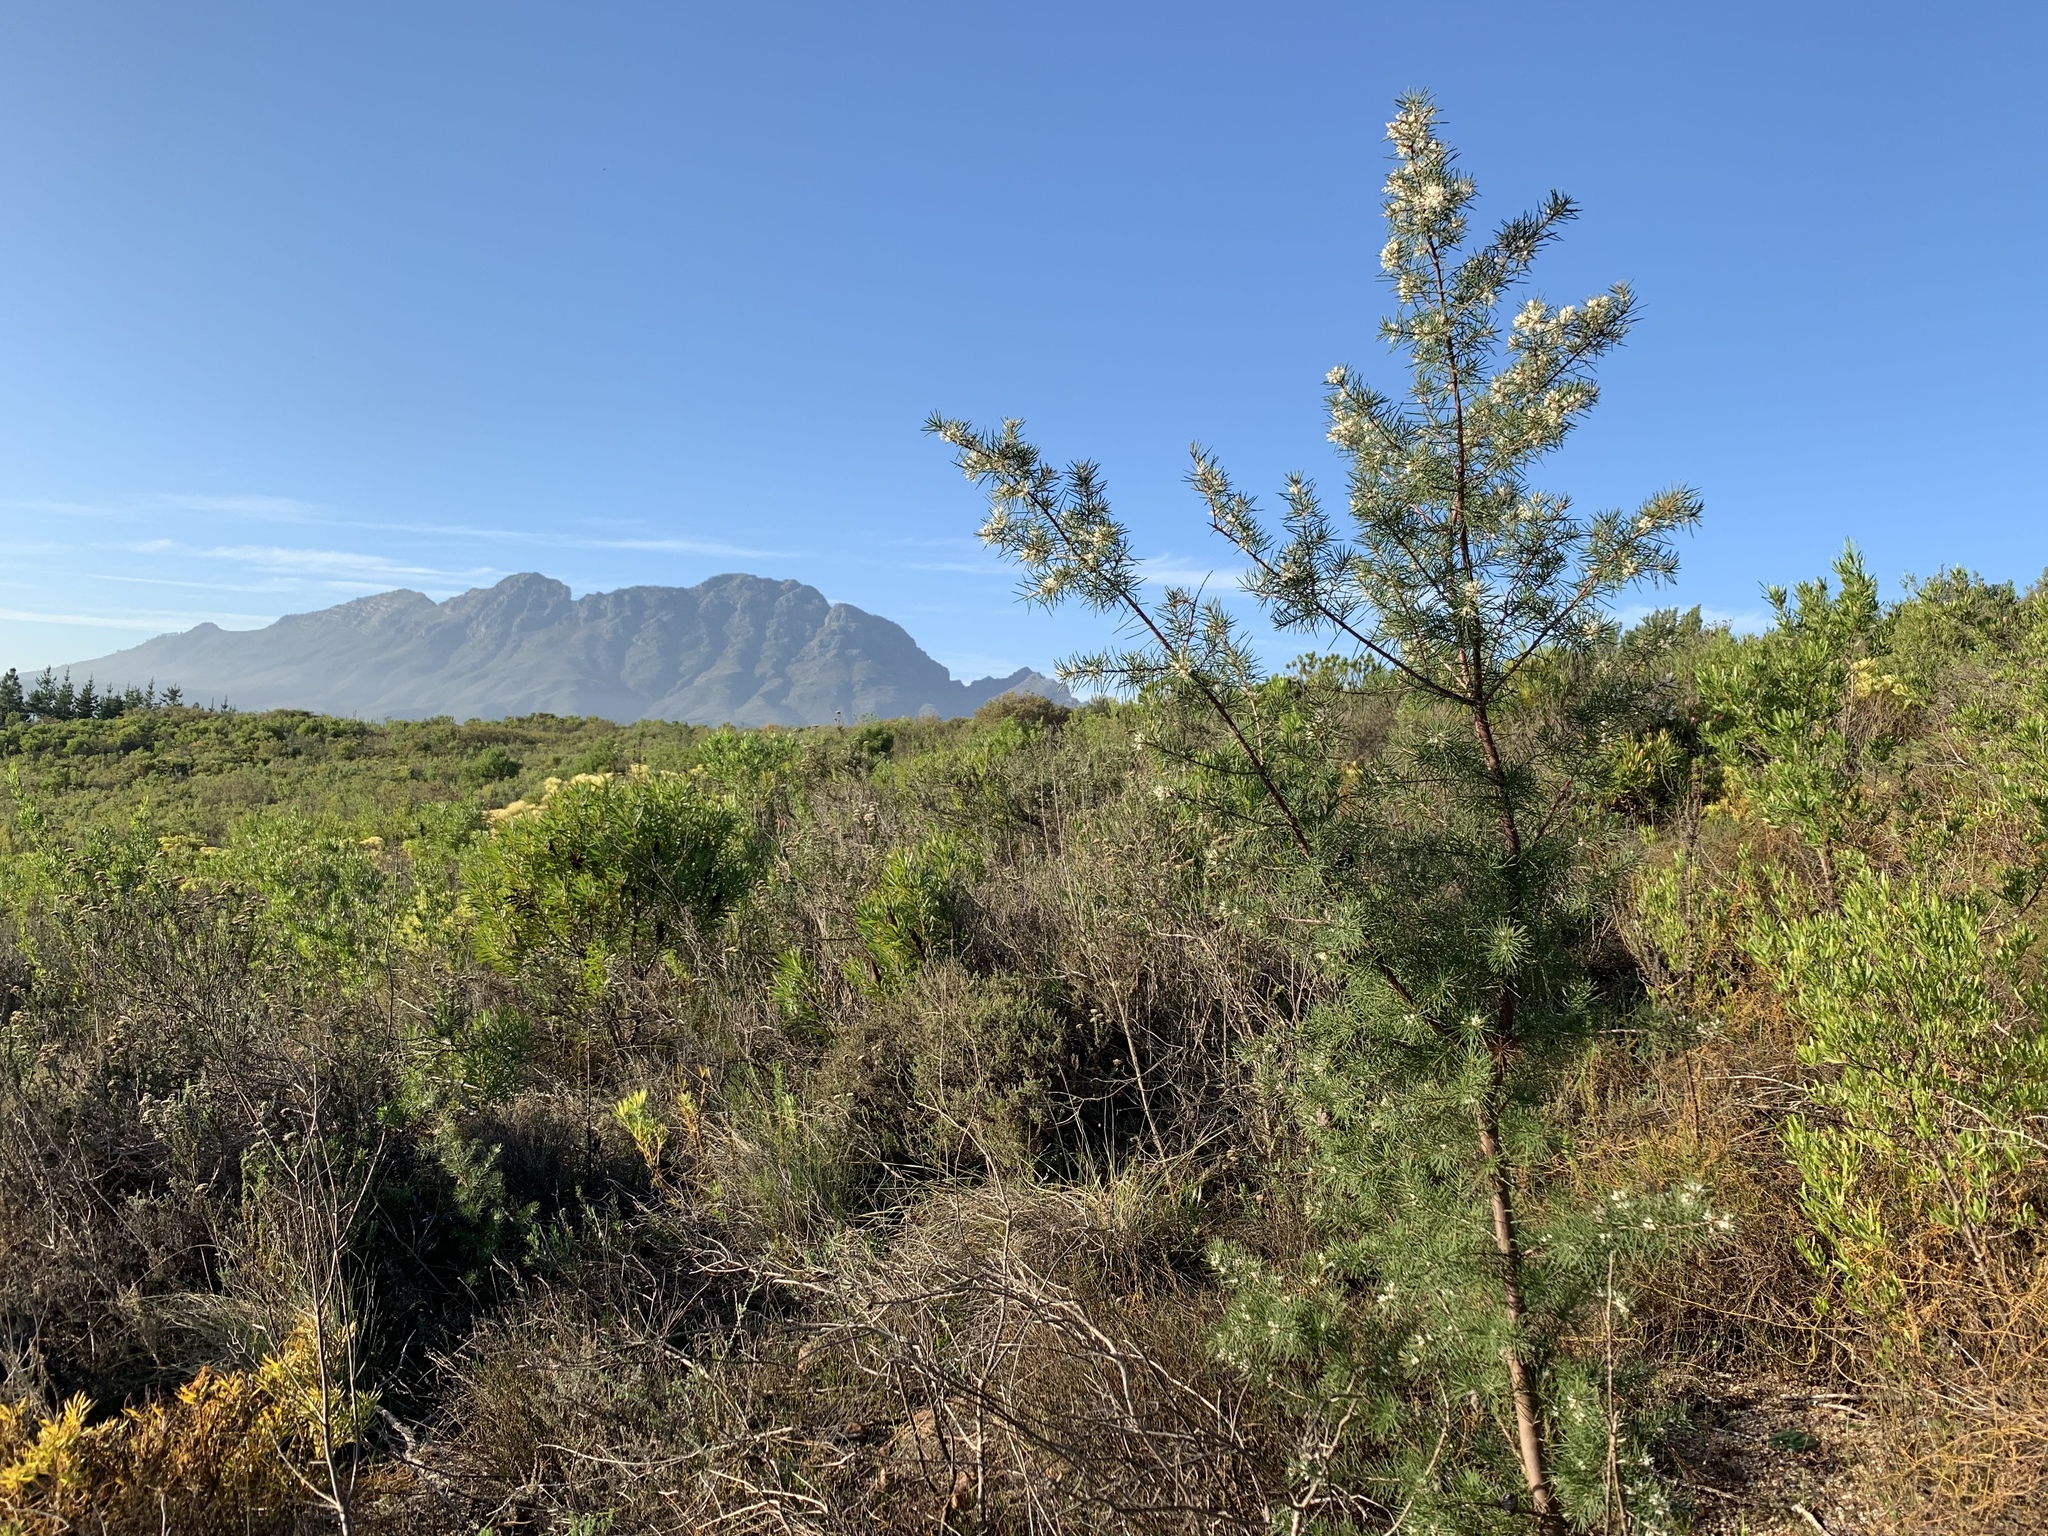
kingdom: Plantae
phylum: Tracheophyta
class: Magnoliopsida
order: Proteales
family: Proteaceae
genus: Hakea
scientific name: Hakea sericea
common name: Needle bush
